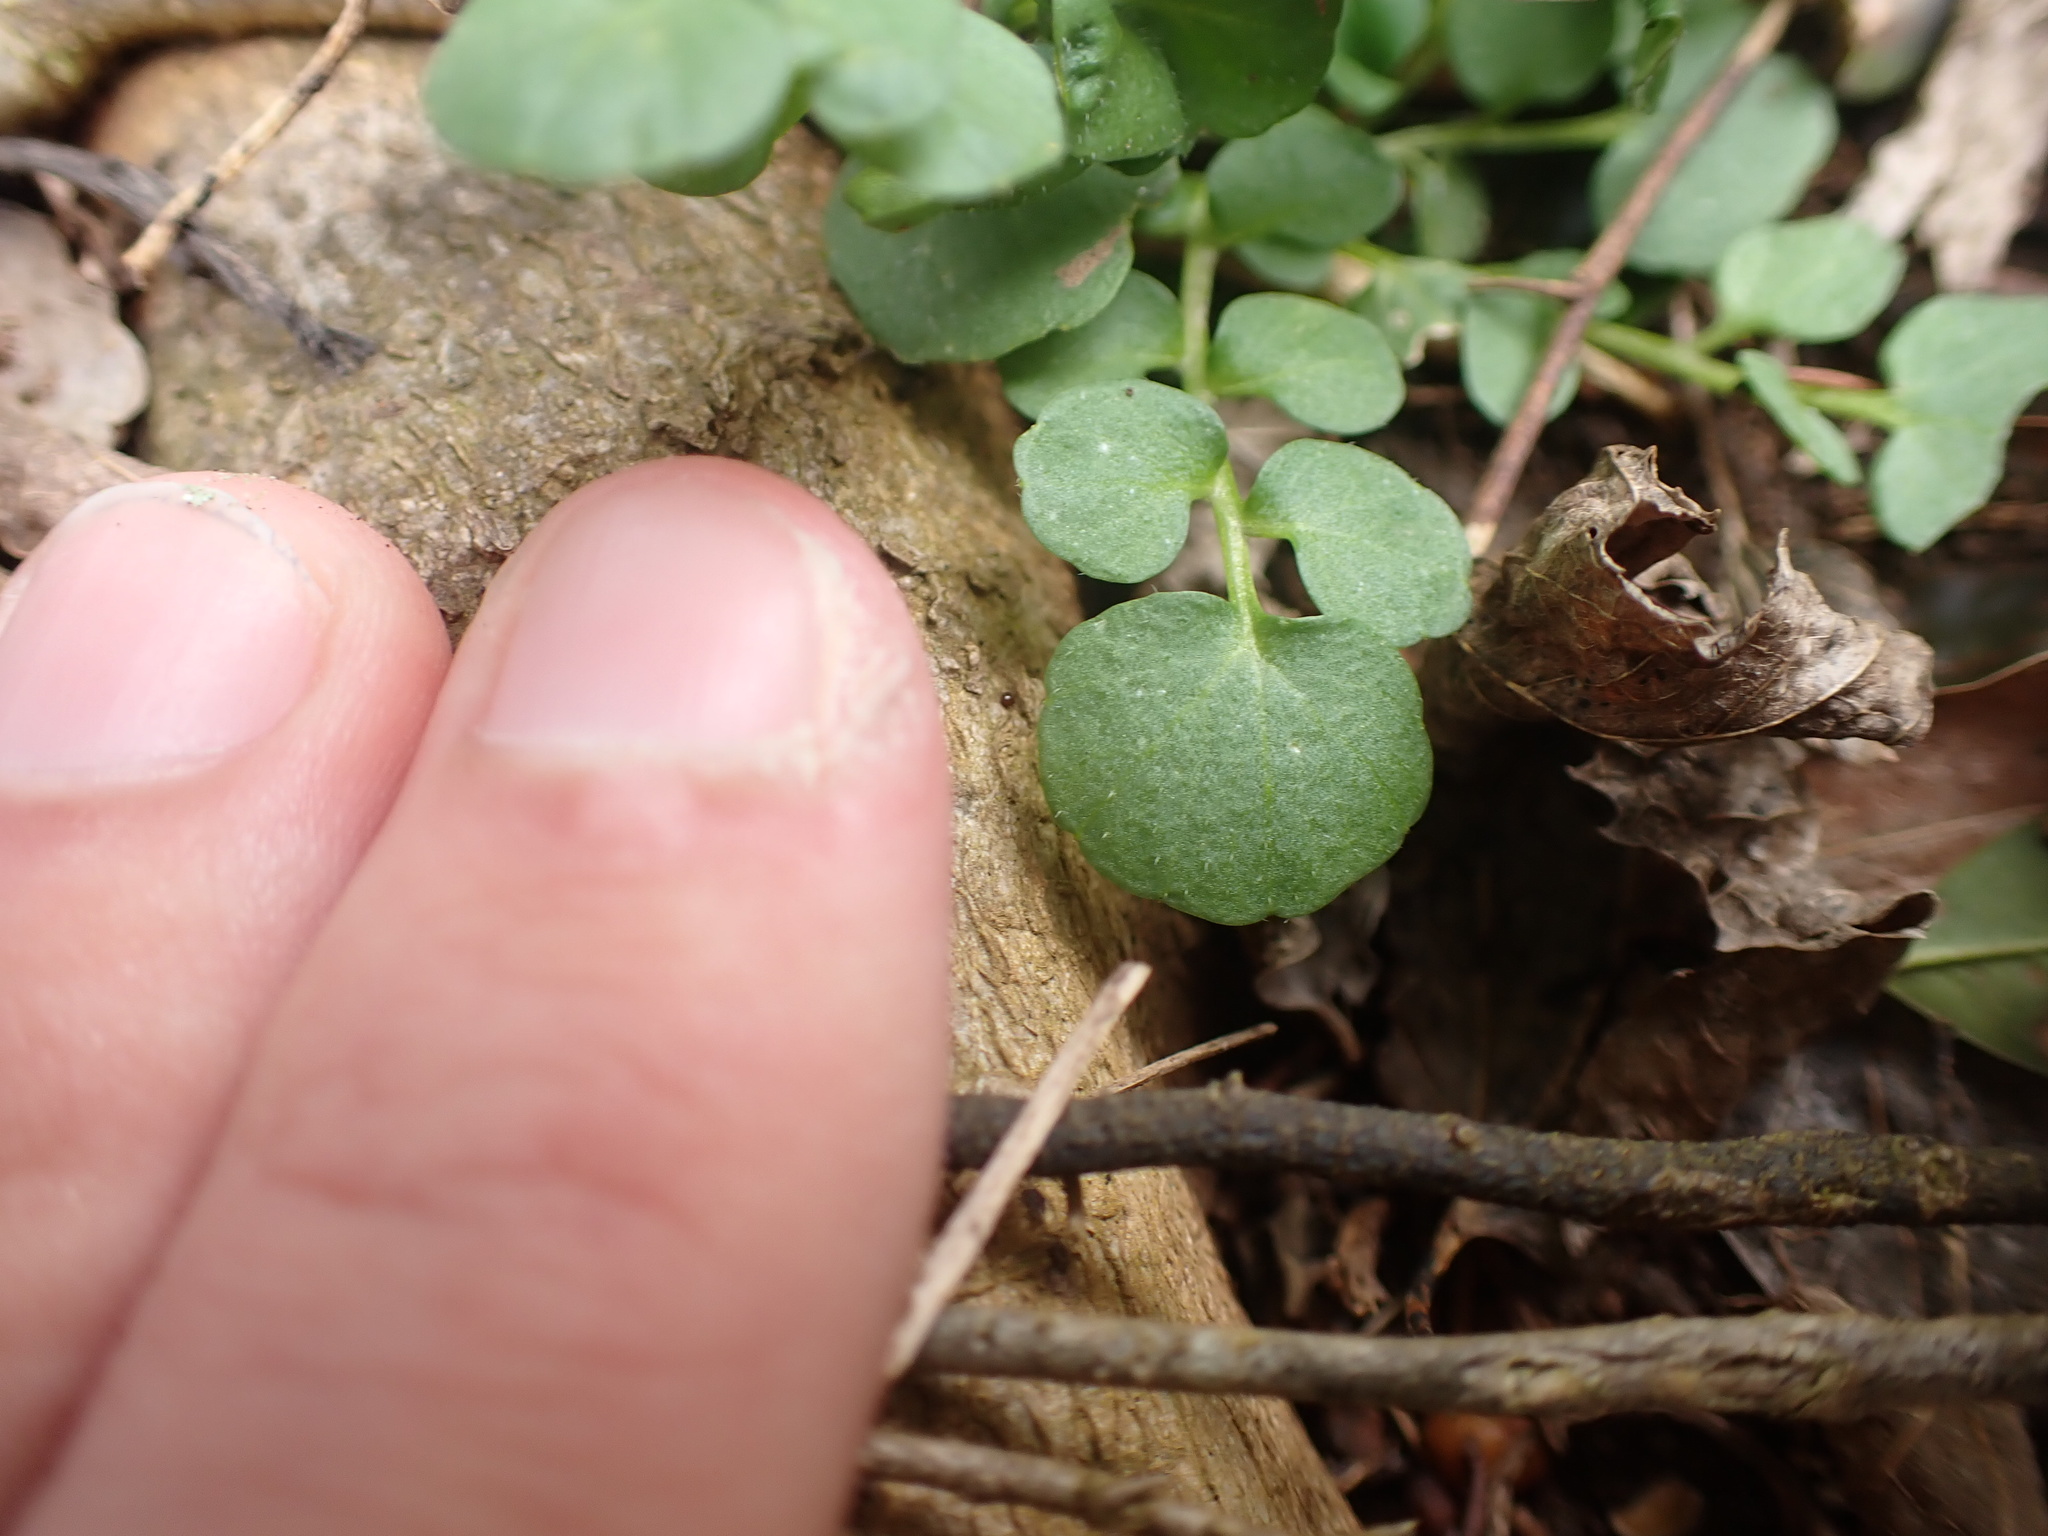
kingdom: Plantae
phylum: Tracheophyta
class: Magnoliopsida
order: Brassicales
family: Brassicaceae
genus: Cardamine
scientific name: Cardamine hirsuta
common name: Hairy bittercress
